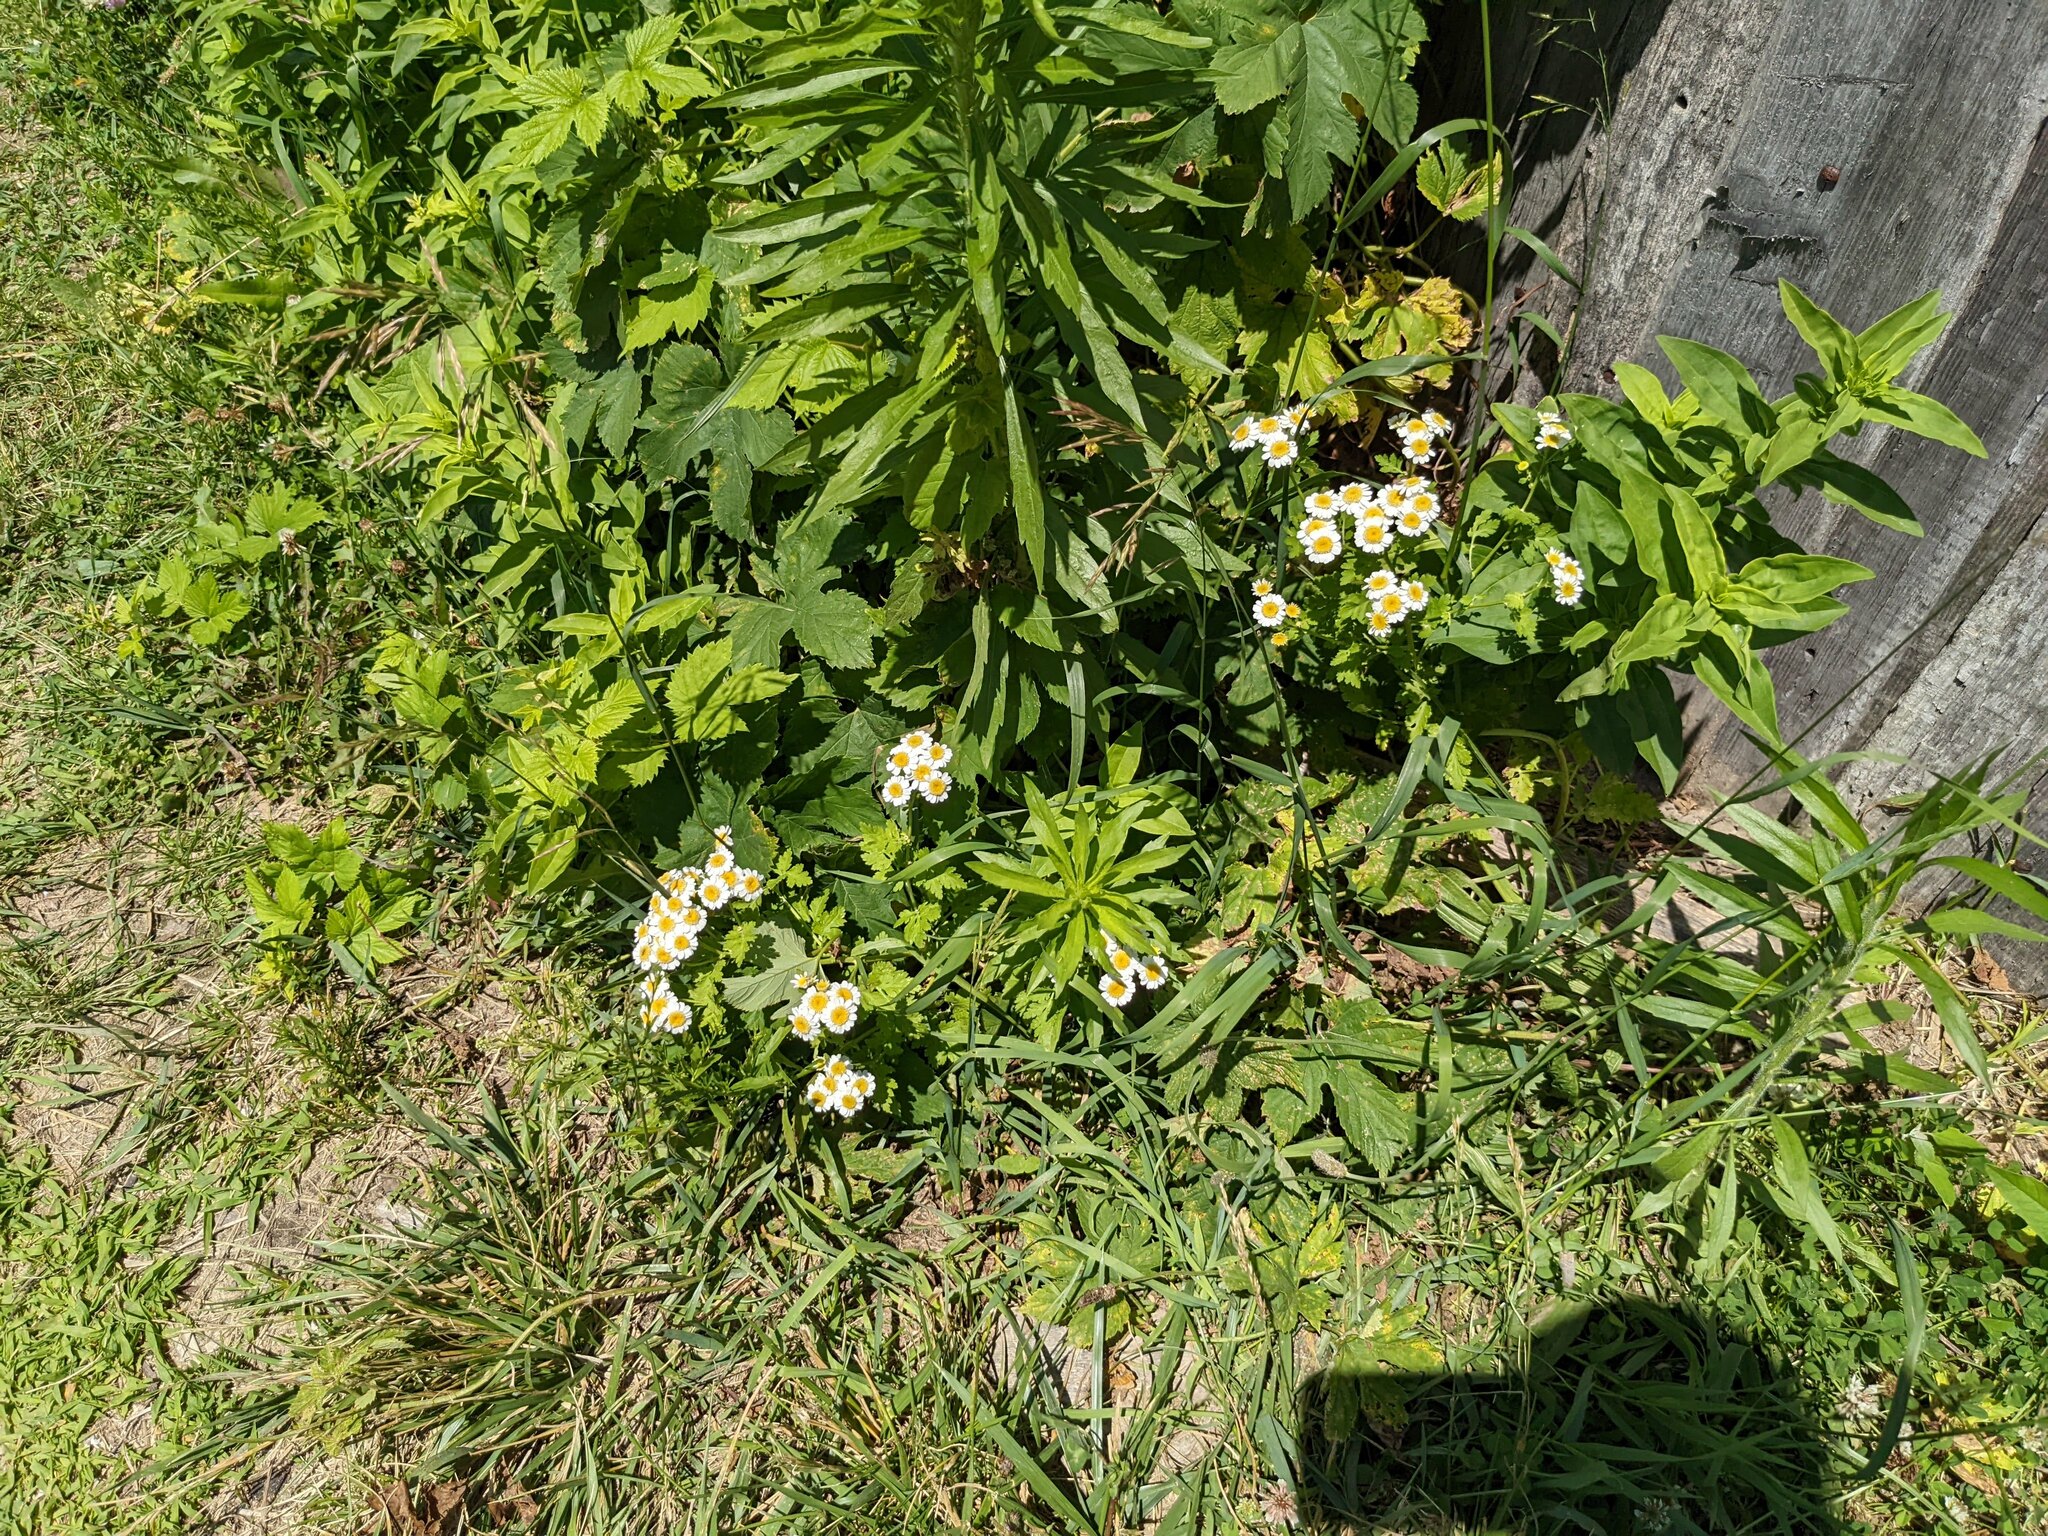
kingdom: Plantae
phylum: Tracheophyta
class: Magnoliopsida
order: Asterales
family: Asteraceae
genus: Tanacetum
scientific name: Tanacetum parthenium
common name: Feverfew
